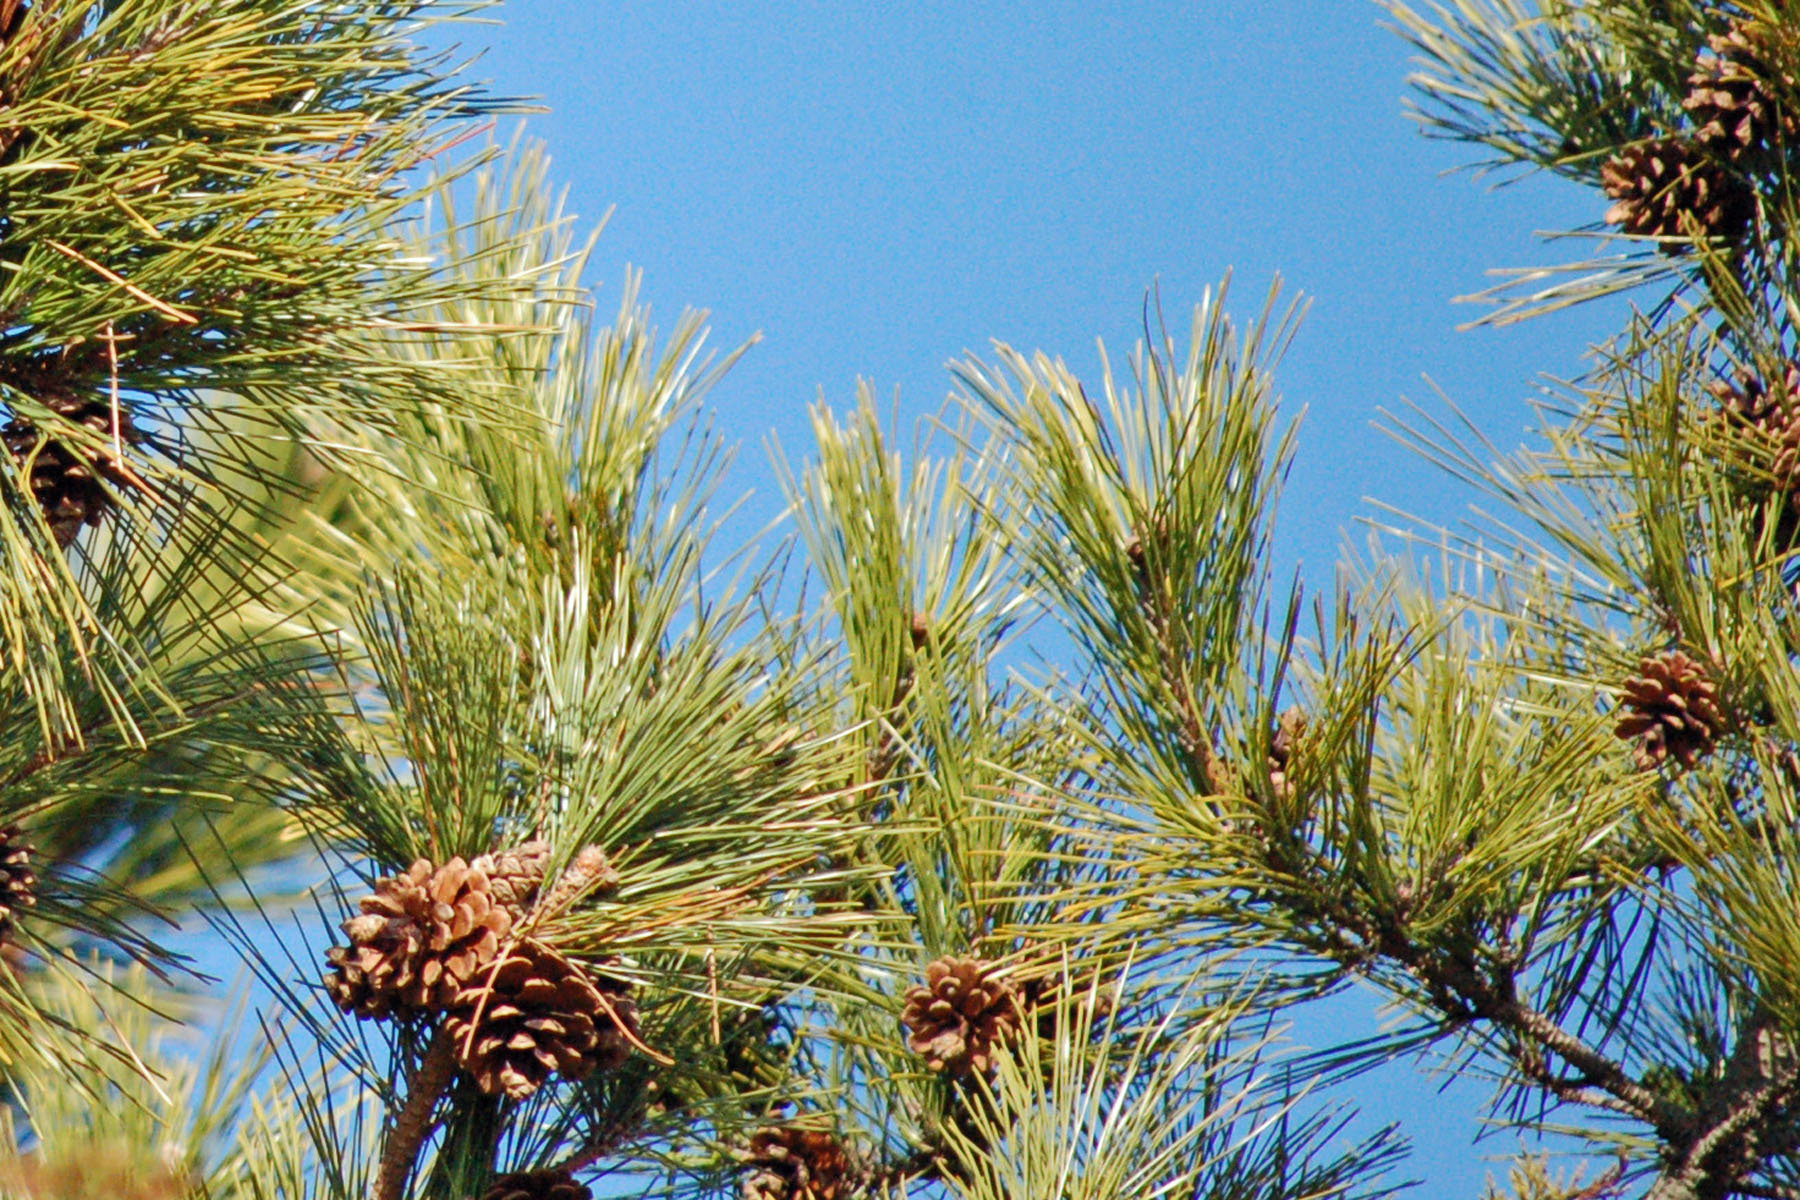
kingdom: Plantae
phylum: Tracheophyta
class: Pinopsida
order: Pinales
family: Pinaceae
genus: Pinus
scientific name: Pinus taeda
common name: Loblolly pine
